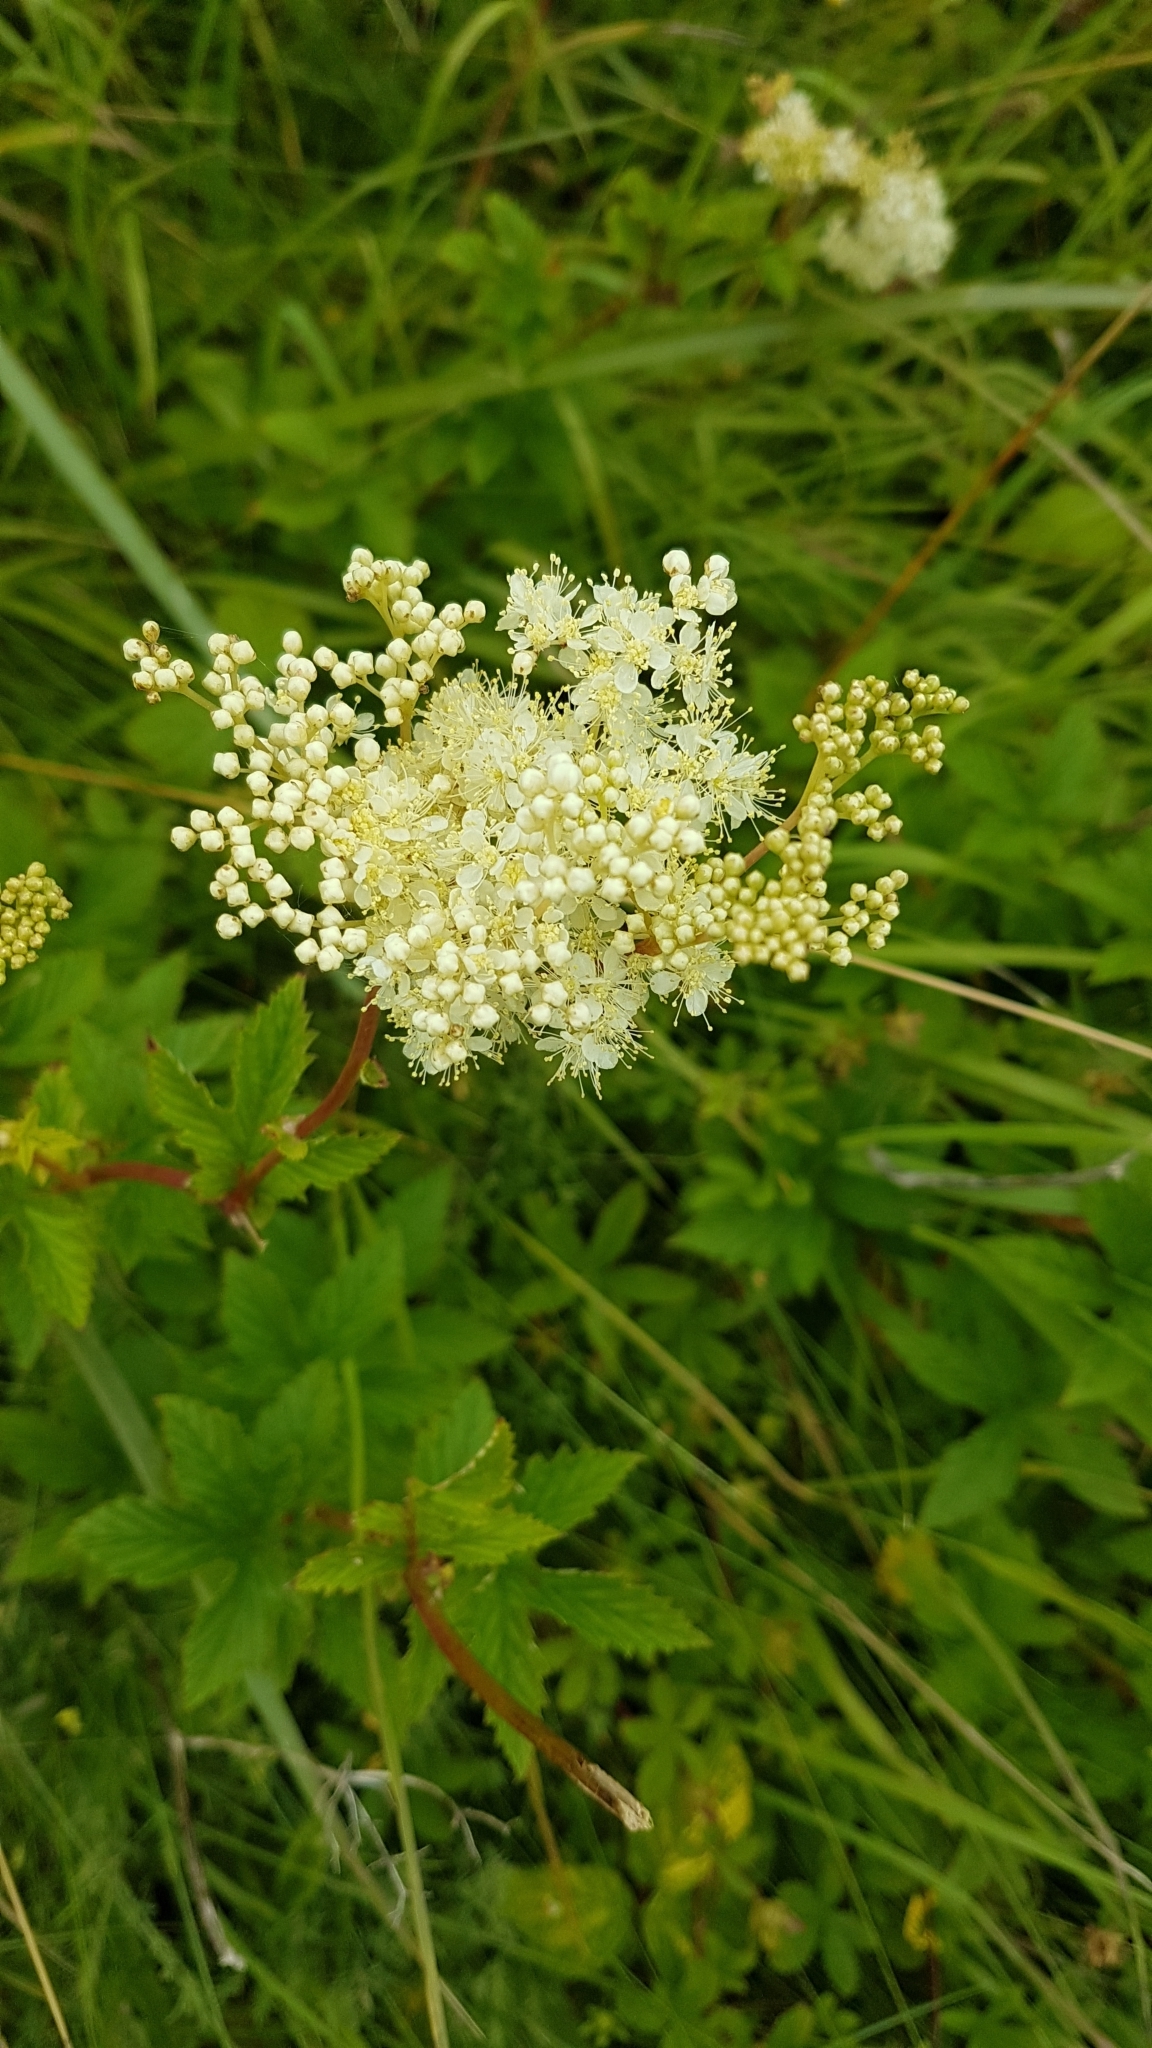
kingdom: Plantae
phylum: Tracheophyta
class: Magnoliopsida
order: Rosales
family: Rosaceae
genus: Filipendula
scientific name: Filipendula ulmaria
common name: Meadowsweet
